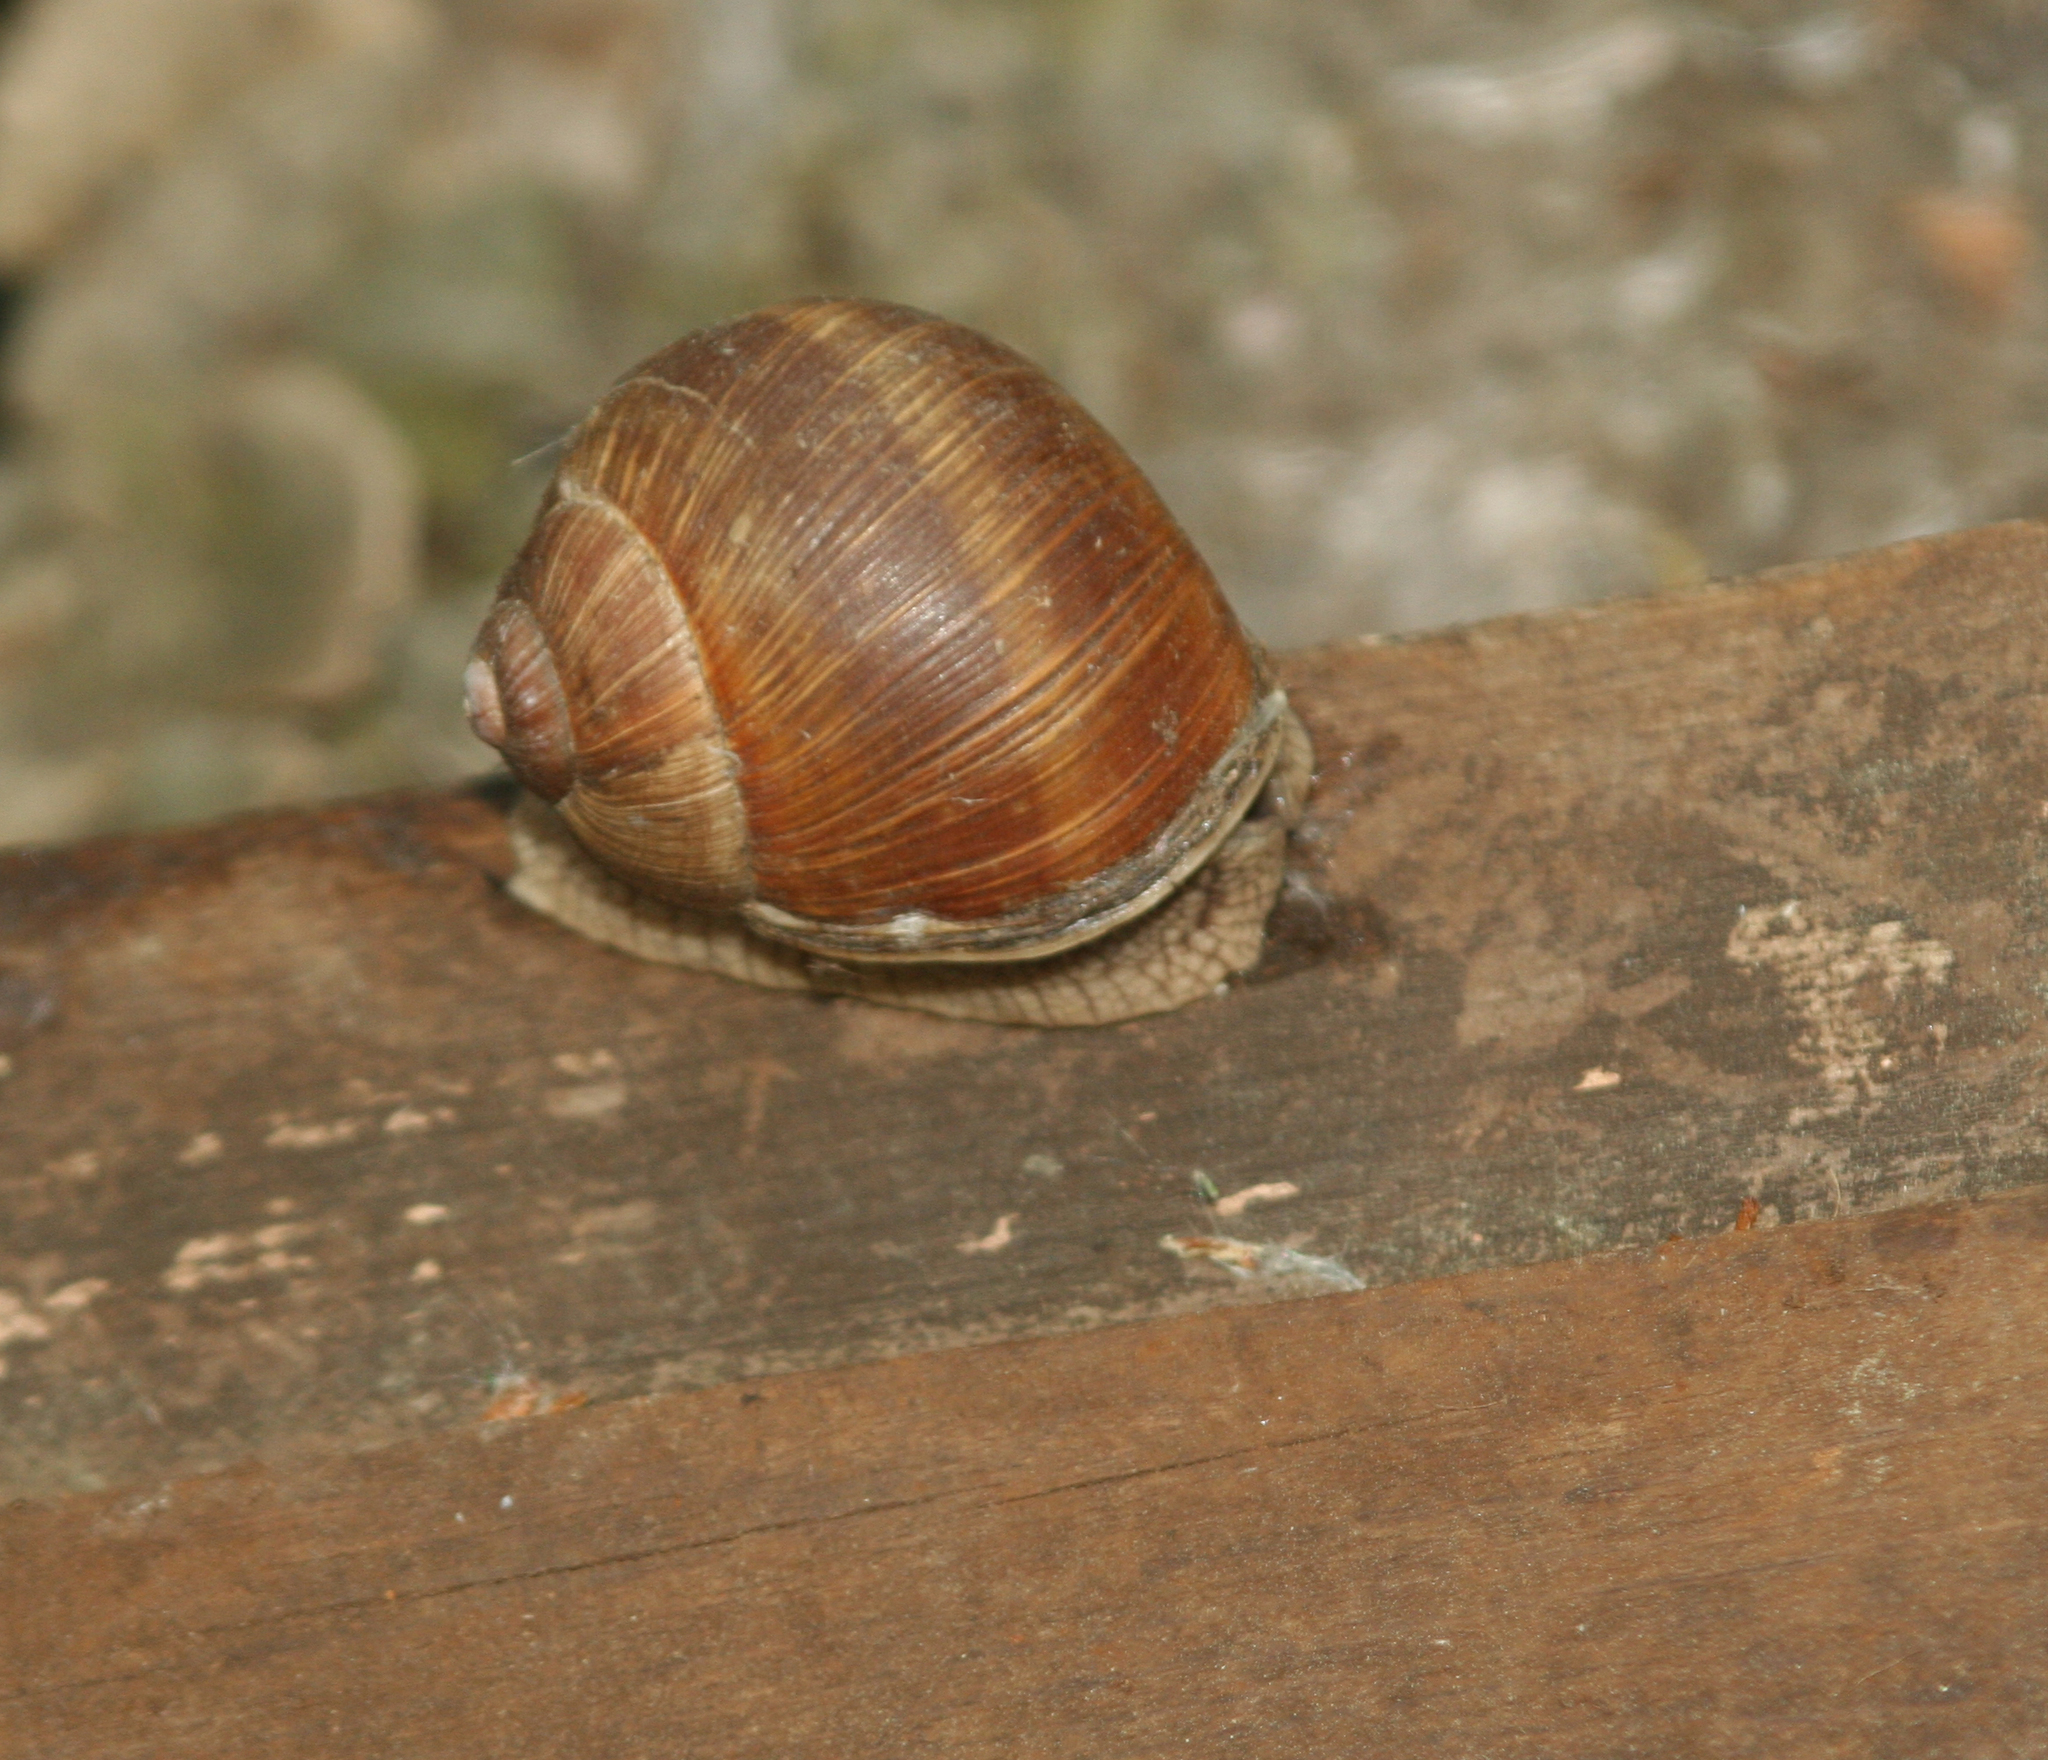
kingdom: Animalia
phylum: Mollusca
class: Gastropoda
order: Stylommatophora
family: Helicidae
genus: Helix
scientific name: Helix pomatia
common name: Roman snail
